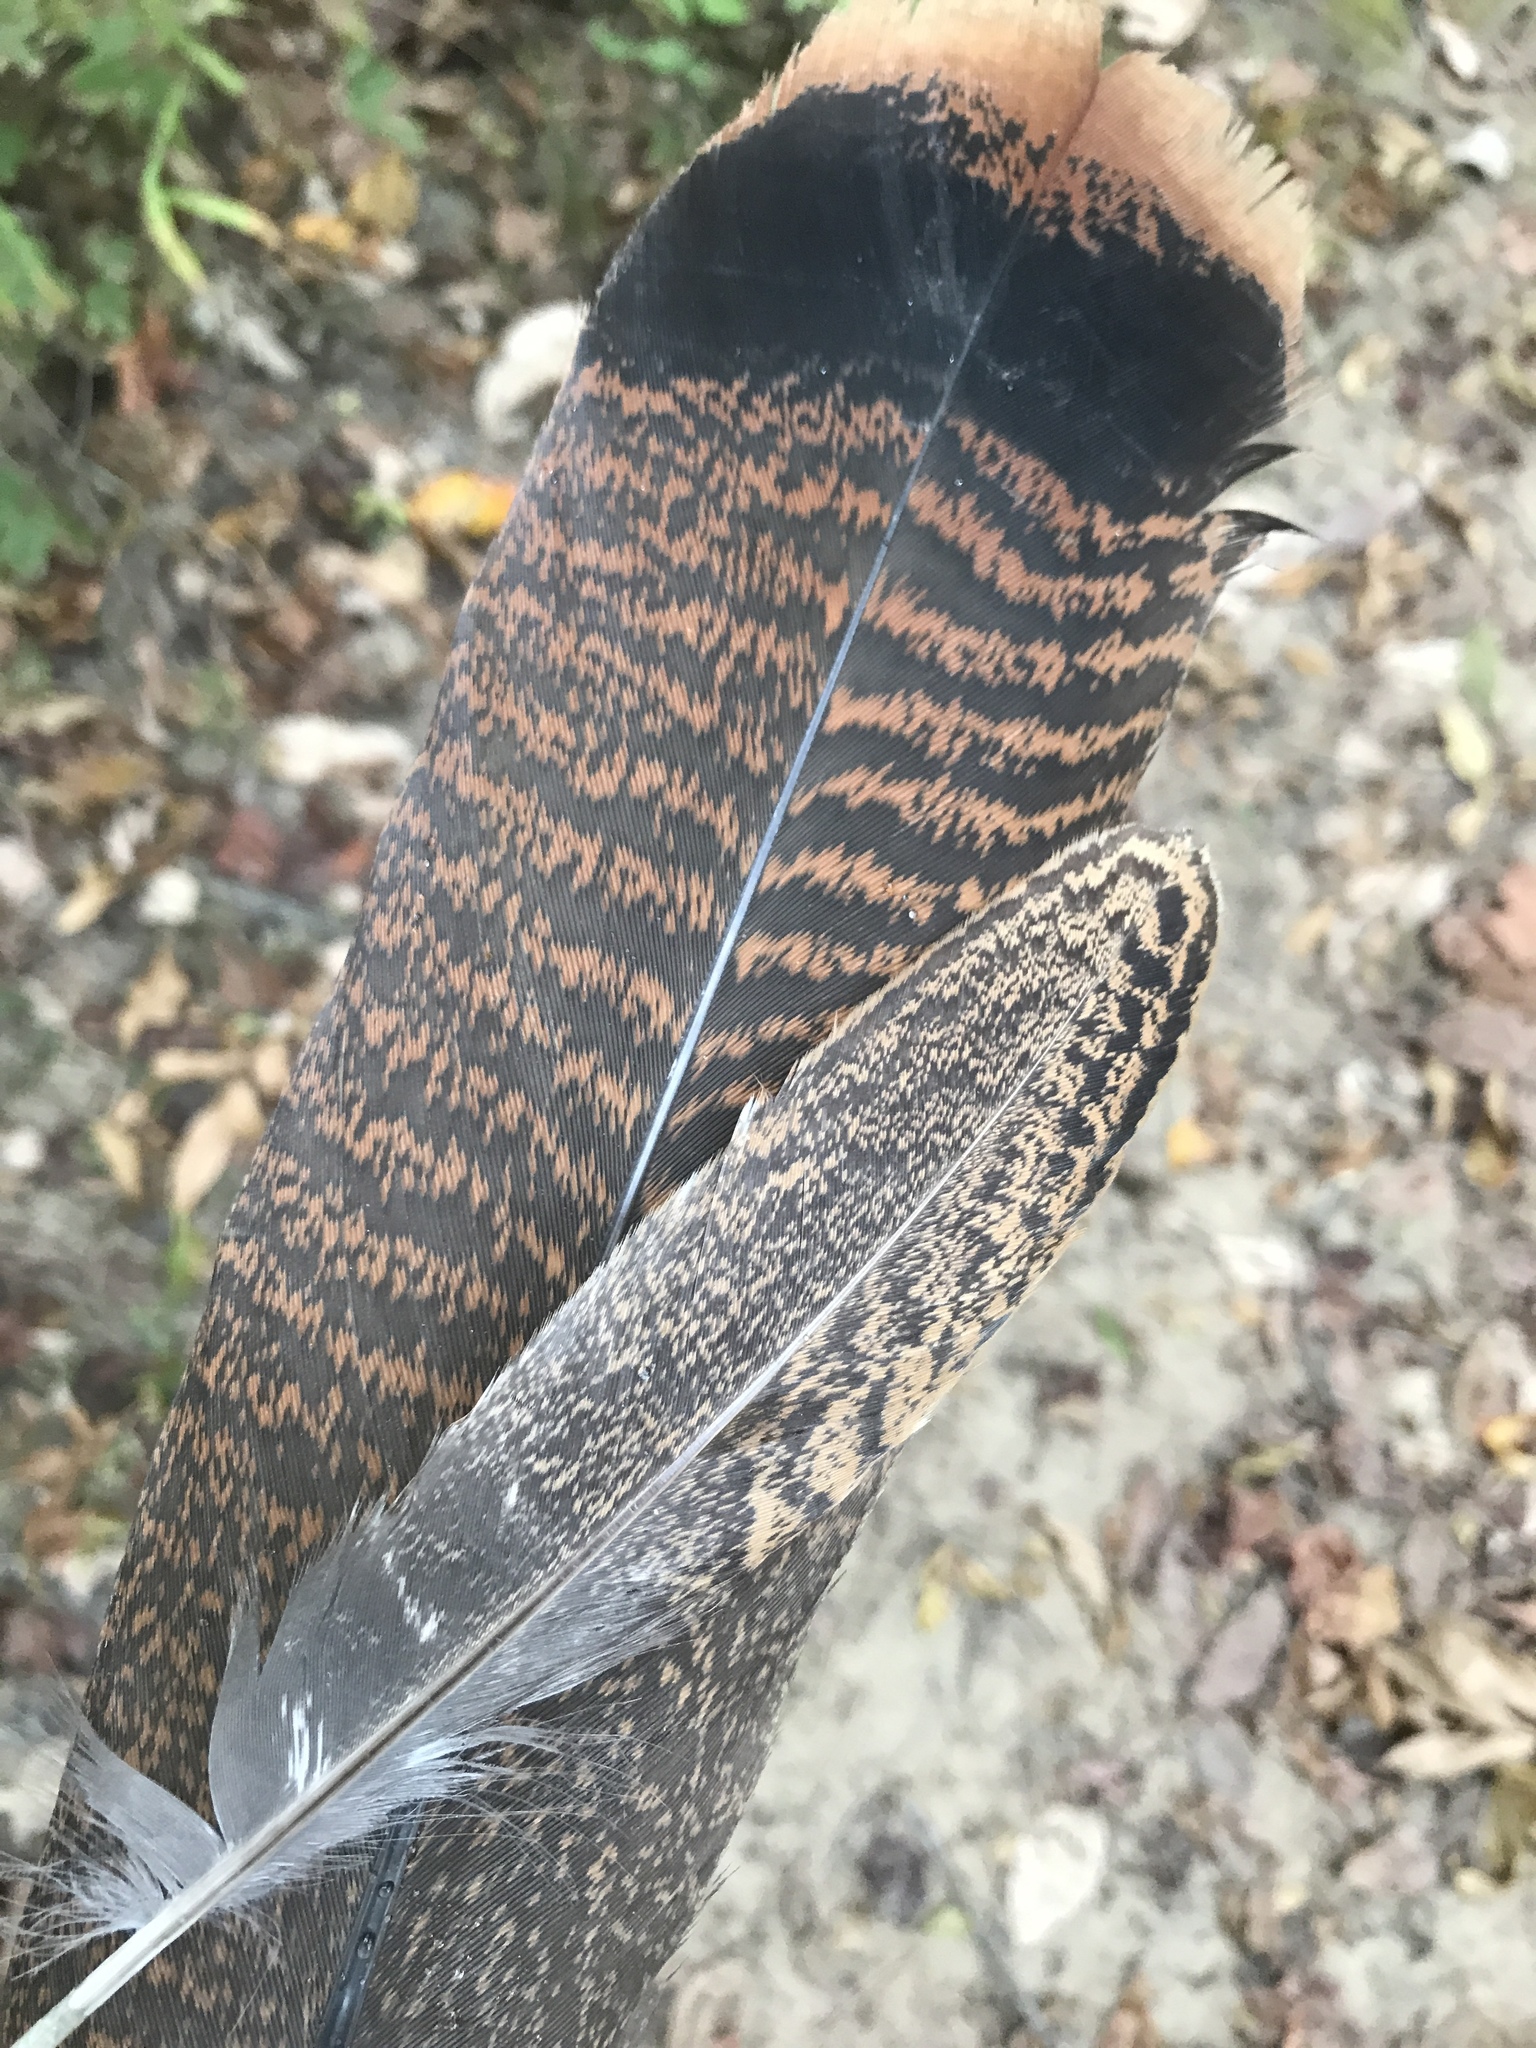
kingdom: Animalia
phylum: Chordata
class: Aves
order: Galliformes
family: Phasianidae
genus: Meleagris
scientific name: Meleagris gallopavo
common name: Wild turkey
